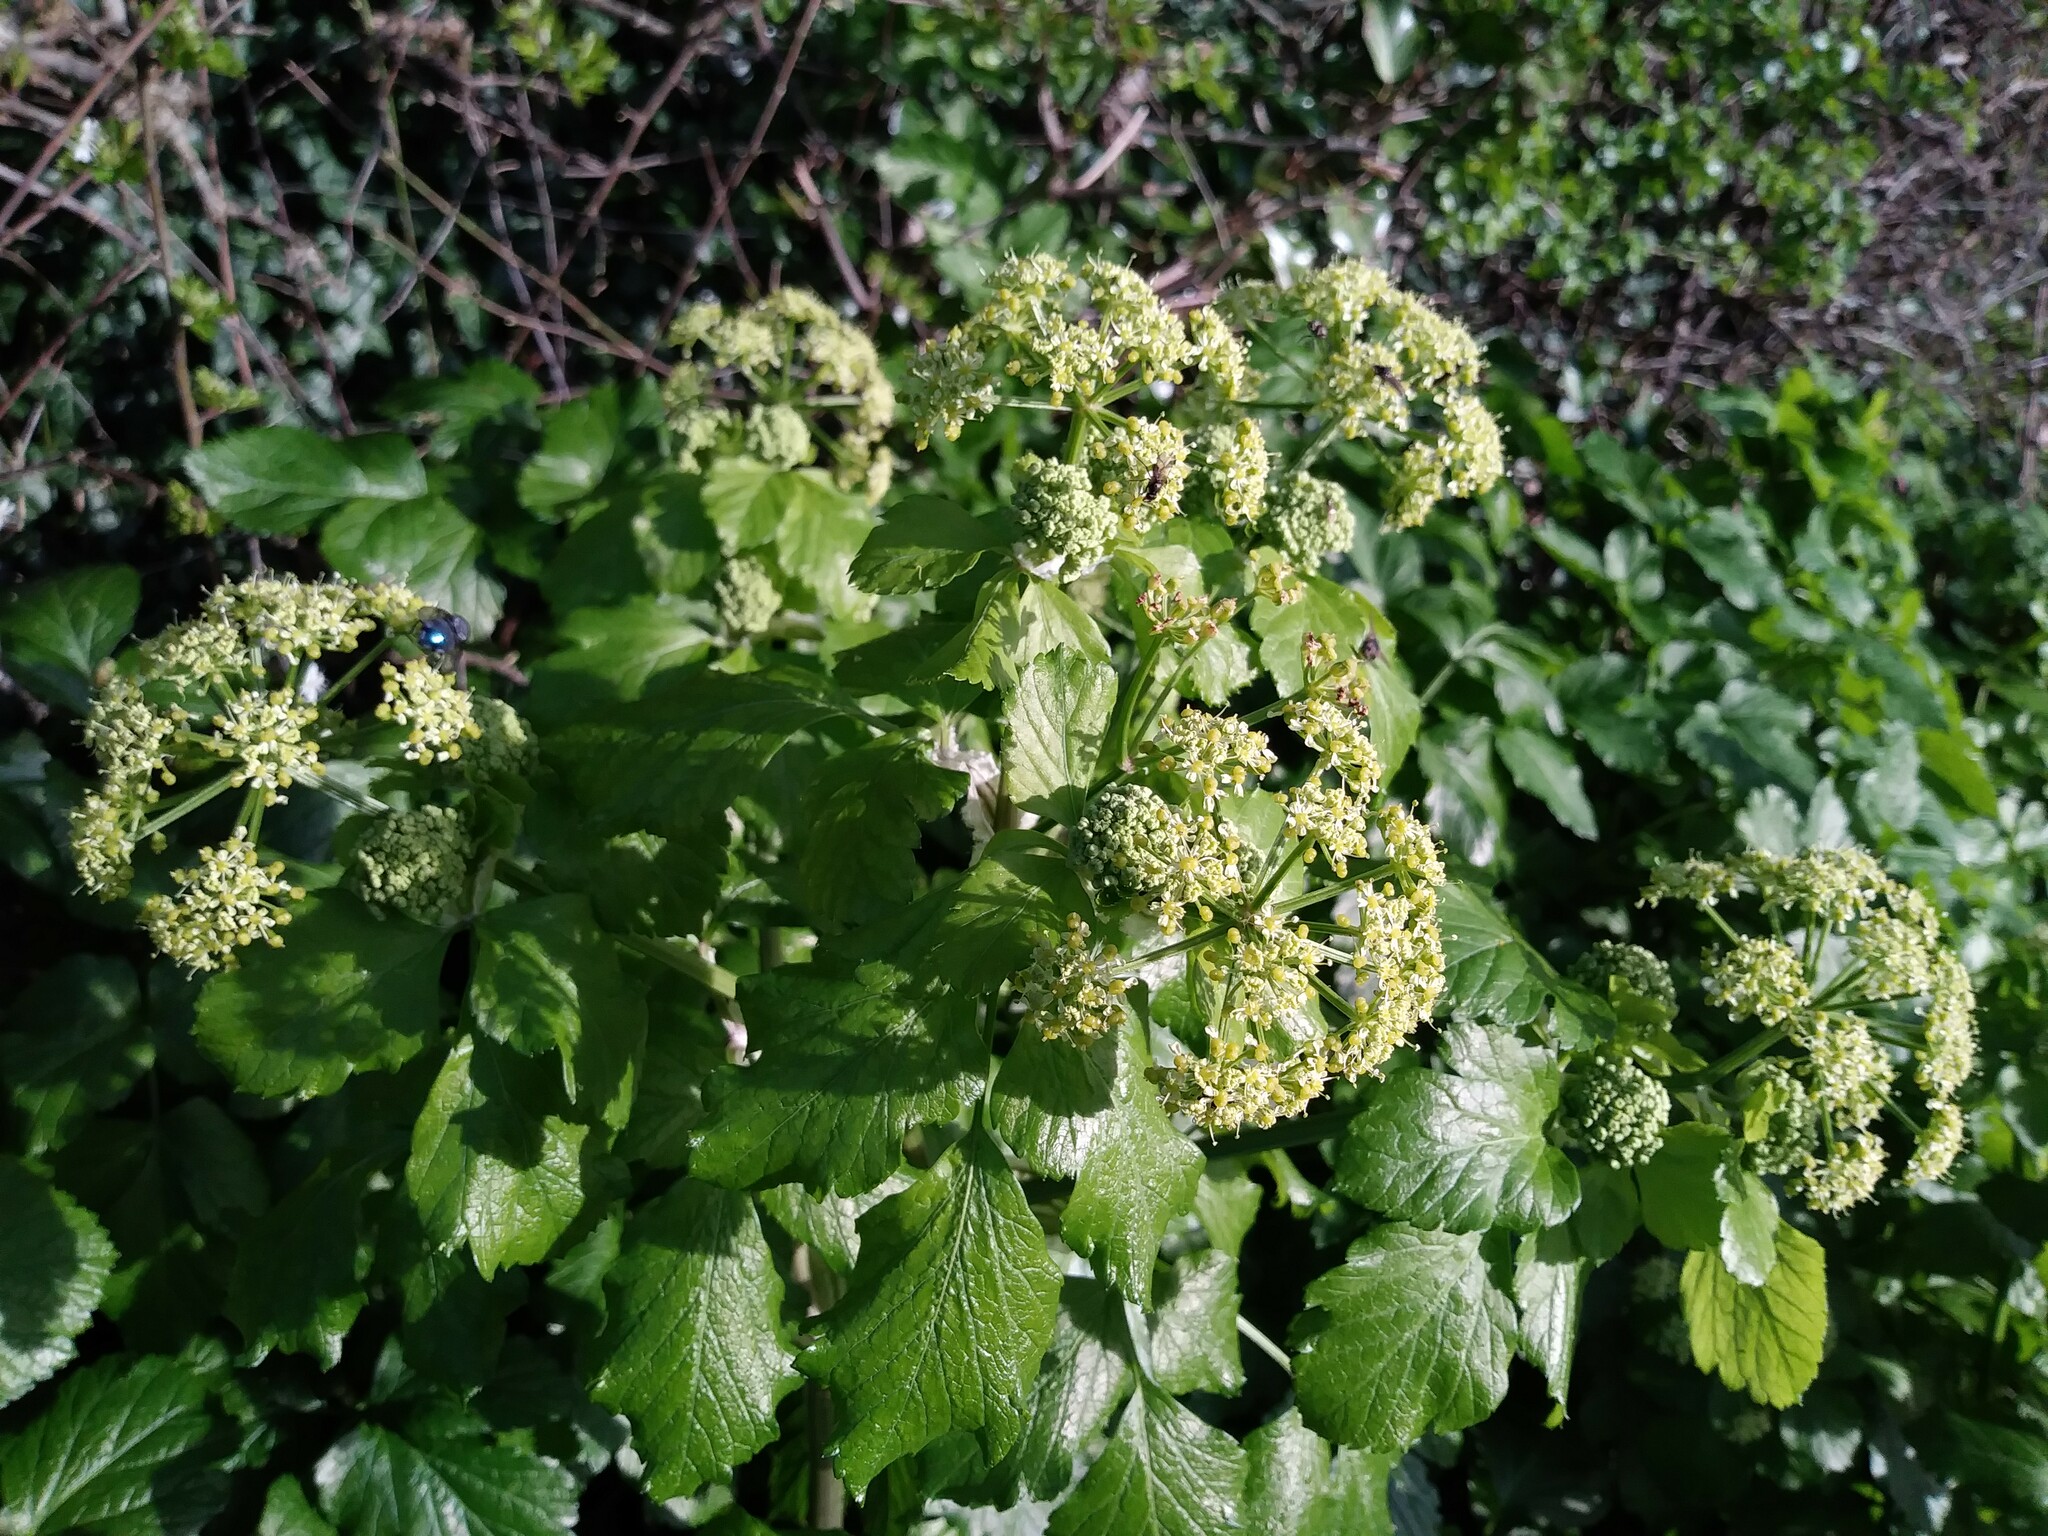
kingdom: Plantae
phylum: Tracheophyta
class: Magnoliopsida
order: Apiales
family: Apiaceae
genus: Smyrnium
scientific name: Smyrnium olusatrum
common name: Alexanders
